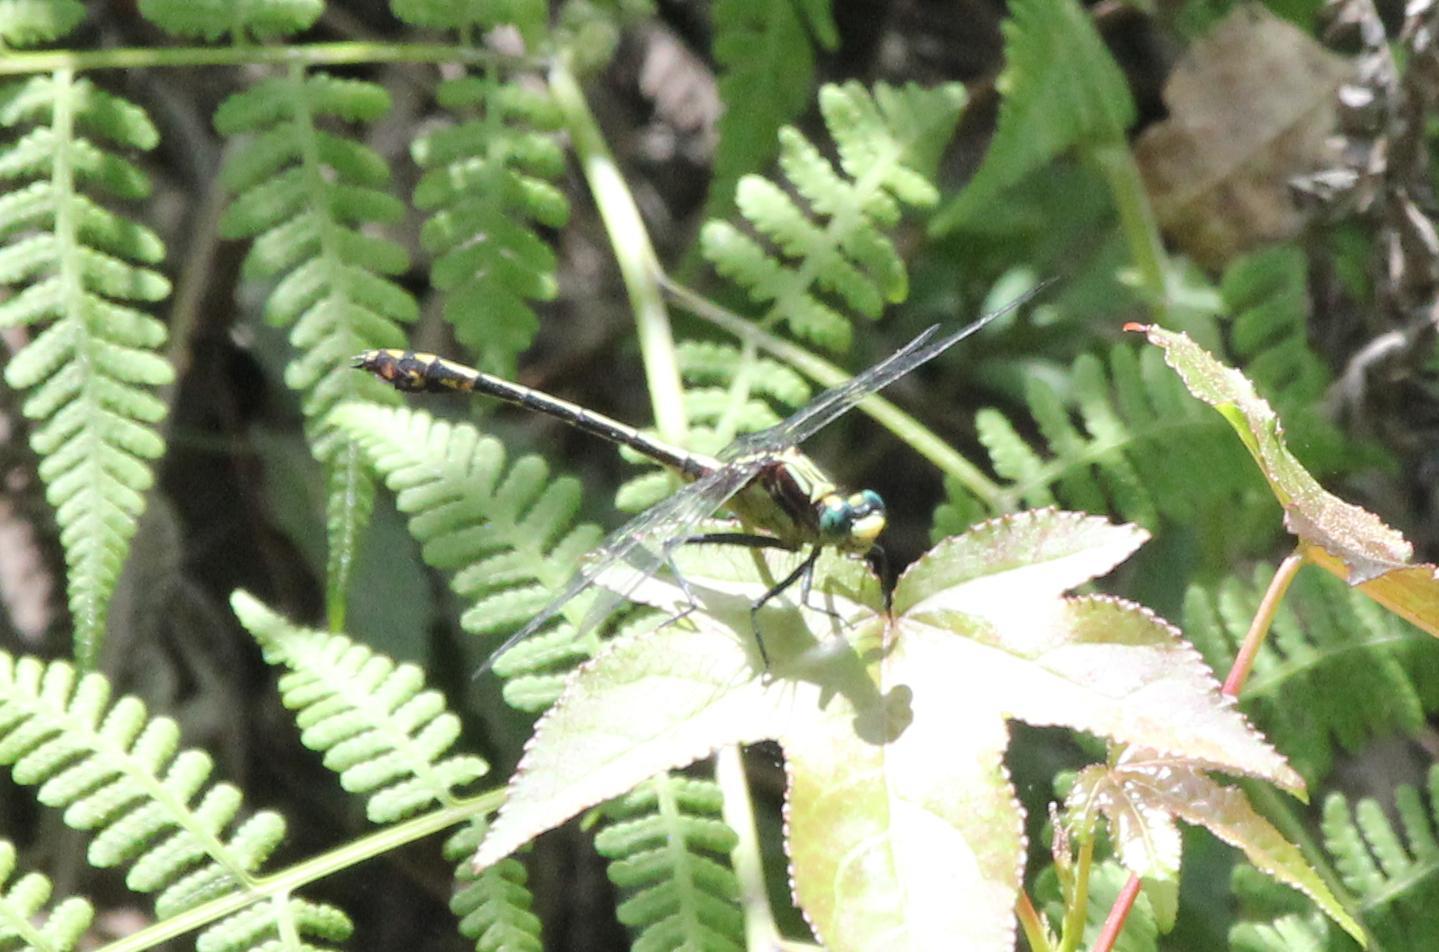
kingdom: Animalia
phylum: Arthropoda
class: Insecta
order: Odonata
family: Gomphidae
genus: Dromogomphus
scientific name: Dromogomphus spinosus
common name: Black-shouldered spinyleg
